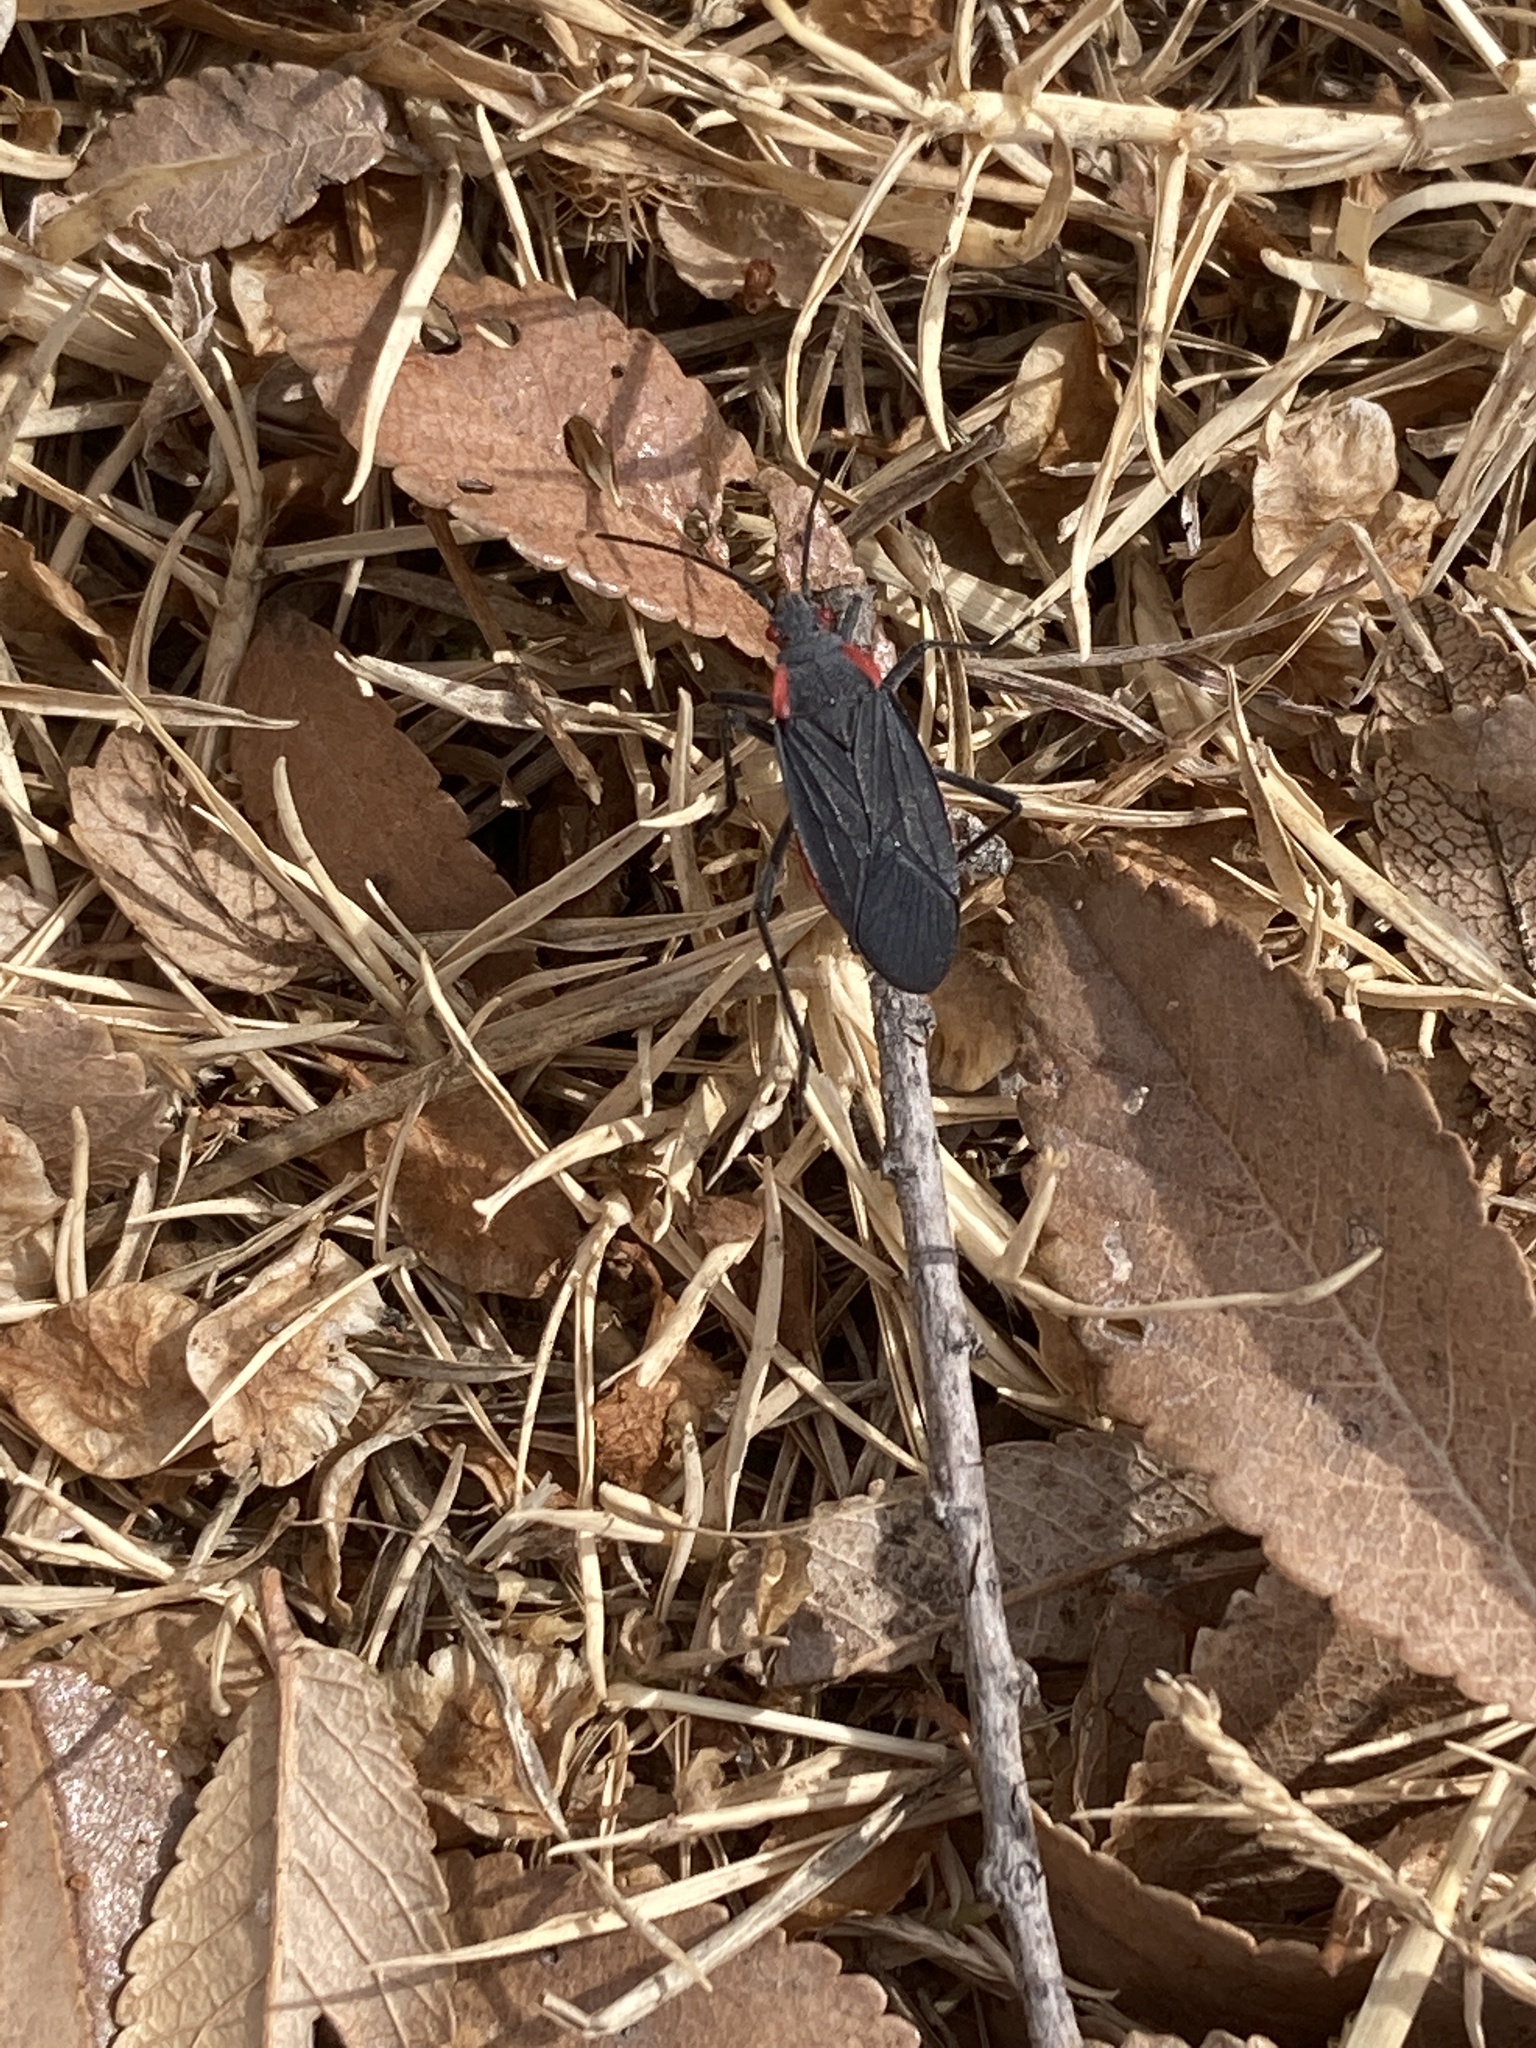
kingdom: Animalia
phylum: Arthropoda
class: Insecta
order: Hemiptera
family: Rhopalidae
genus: Jadera
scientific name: Jadera haematoloma
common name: Red-shouldered bug
